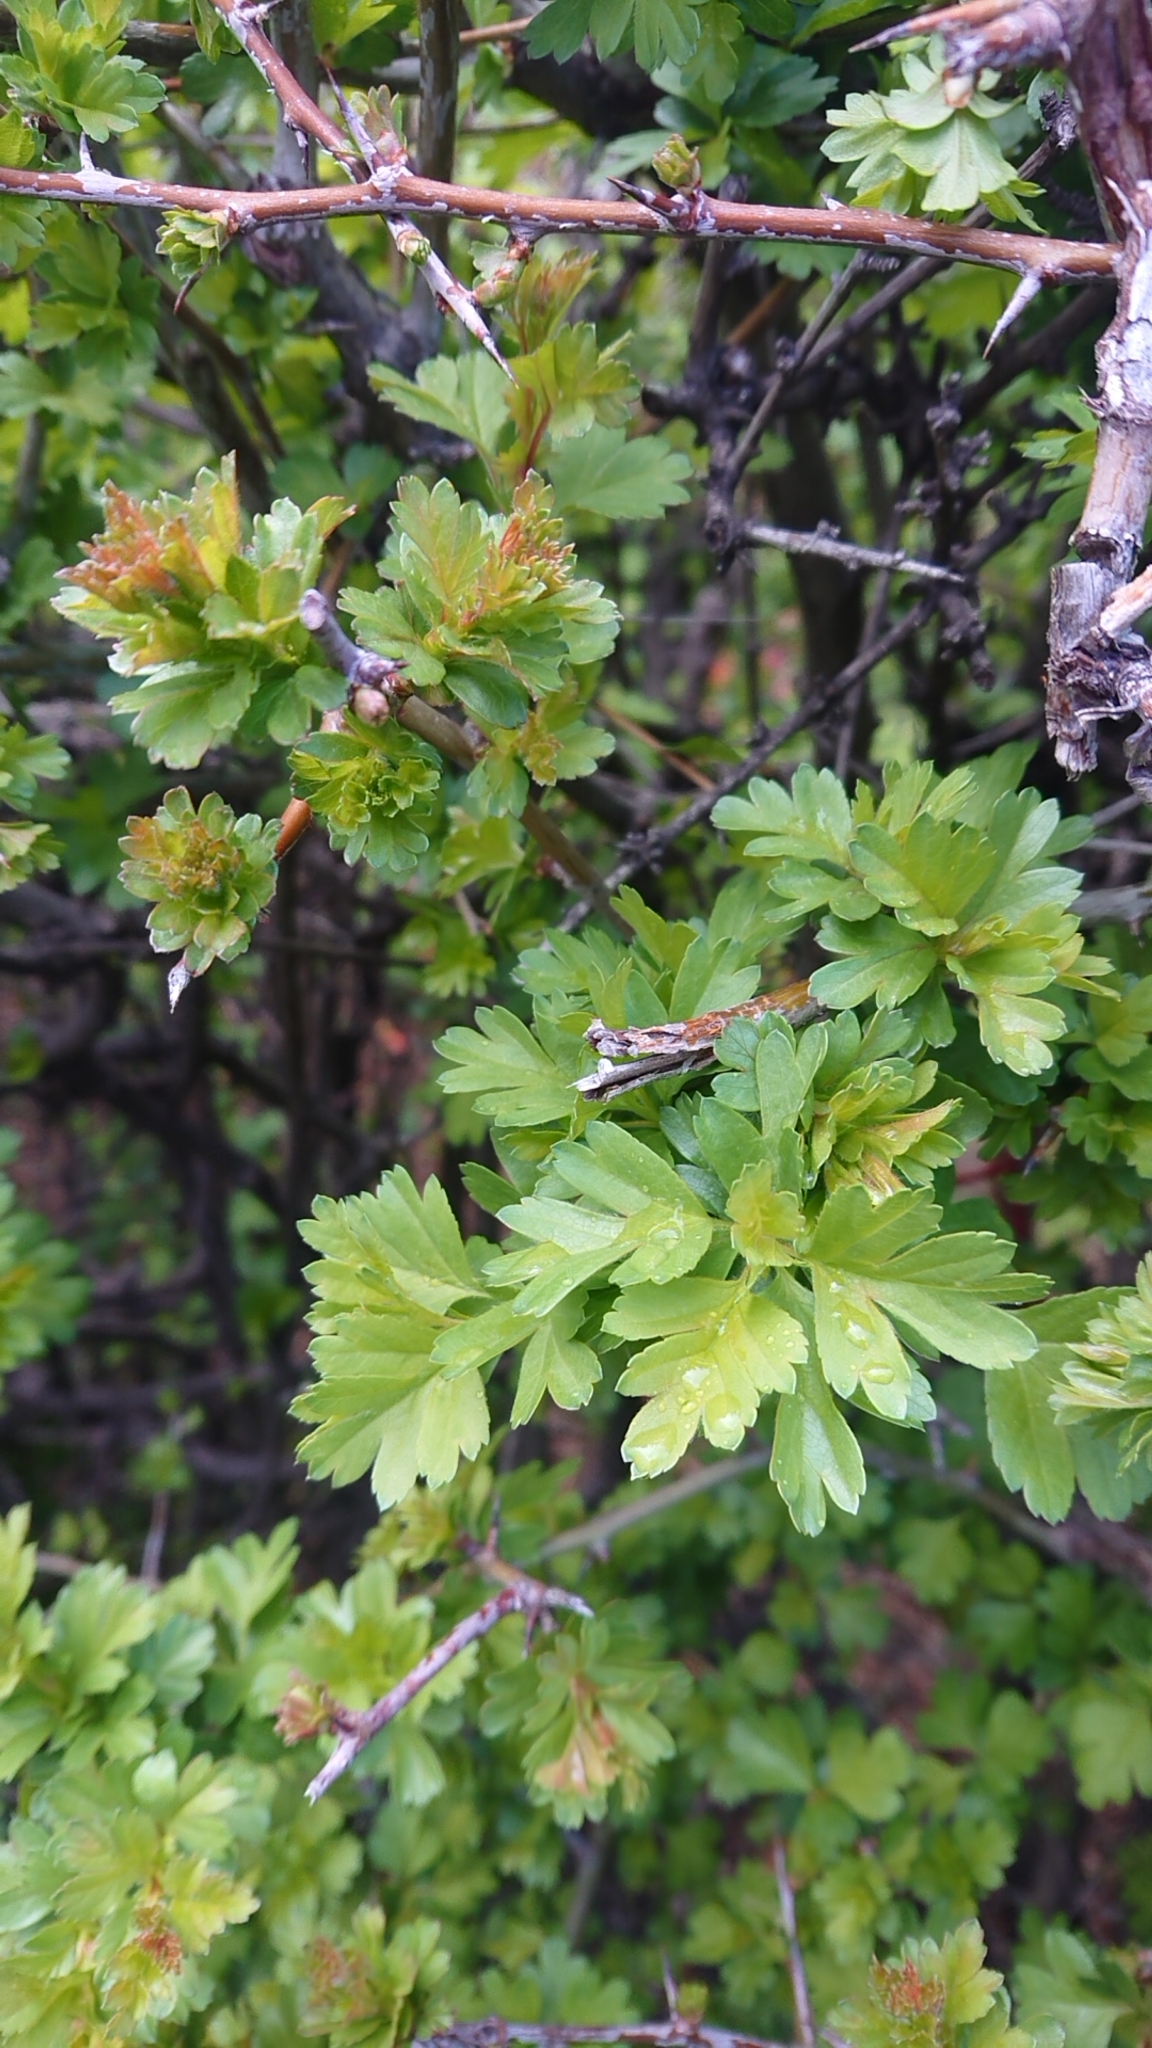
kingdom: Plantae
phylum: Tracheophyta
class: Magnoliopsida
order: Rosales
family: Rosaceae
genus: Crataegus
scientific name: Crataegus monogyna
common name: Hawthorn
